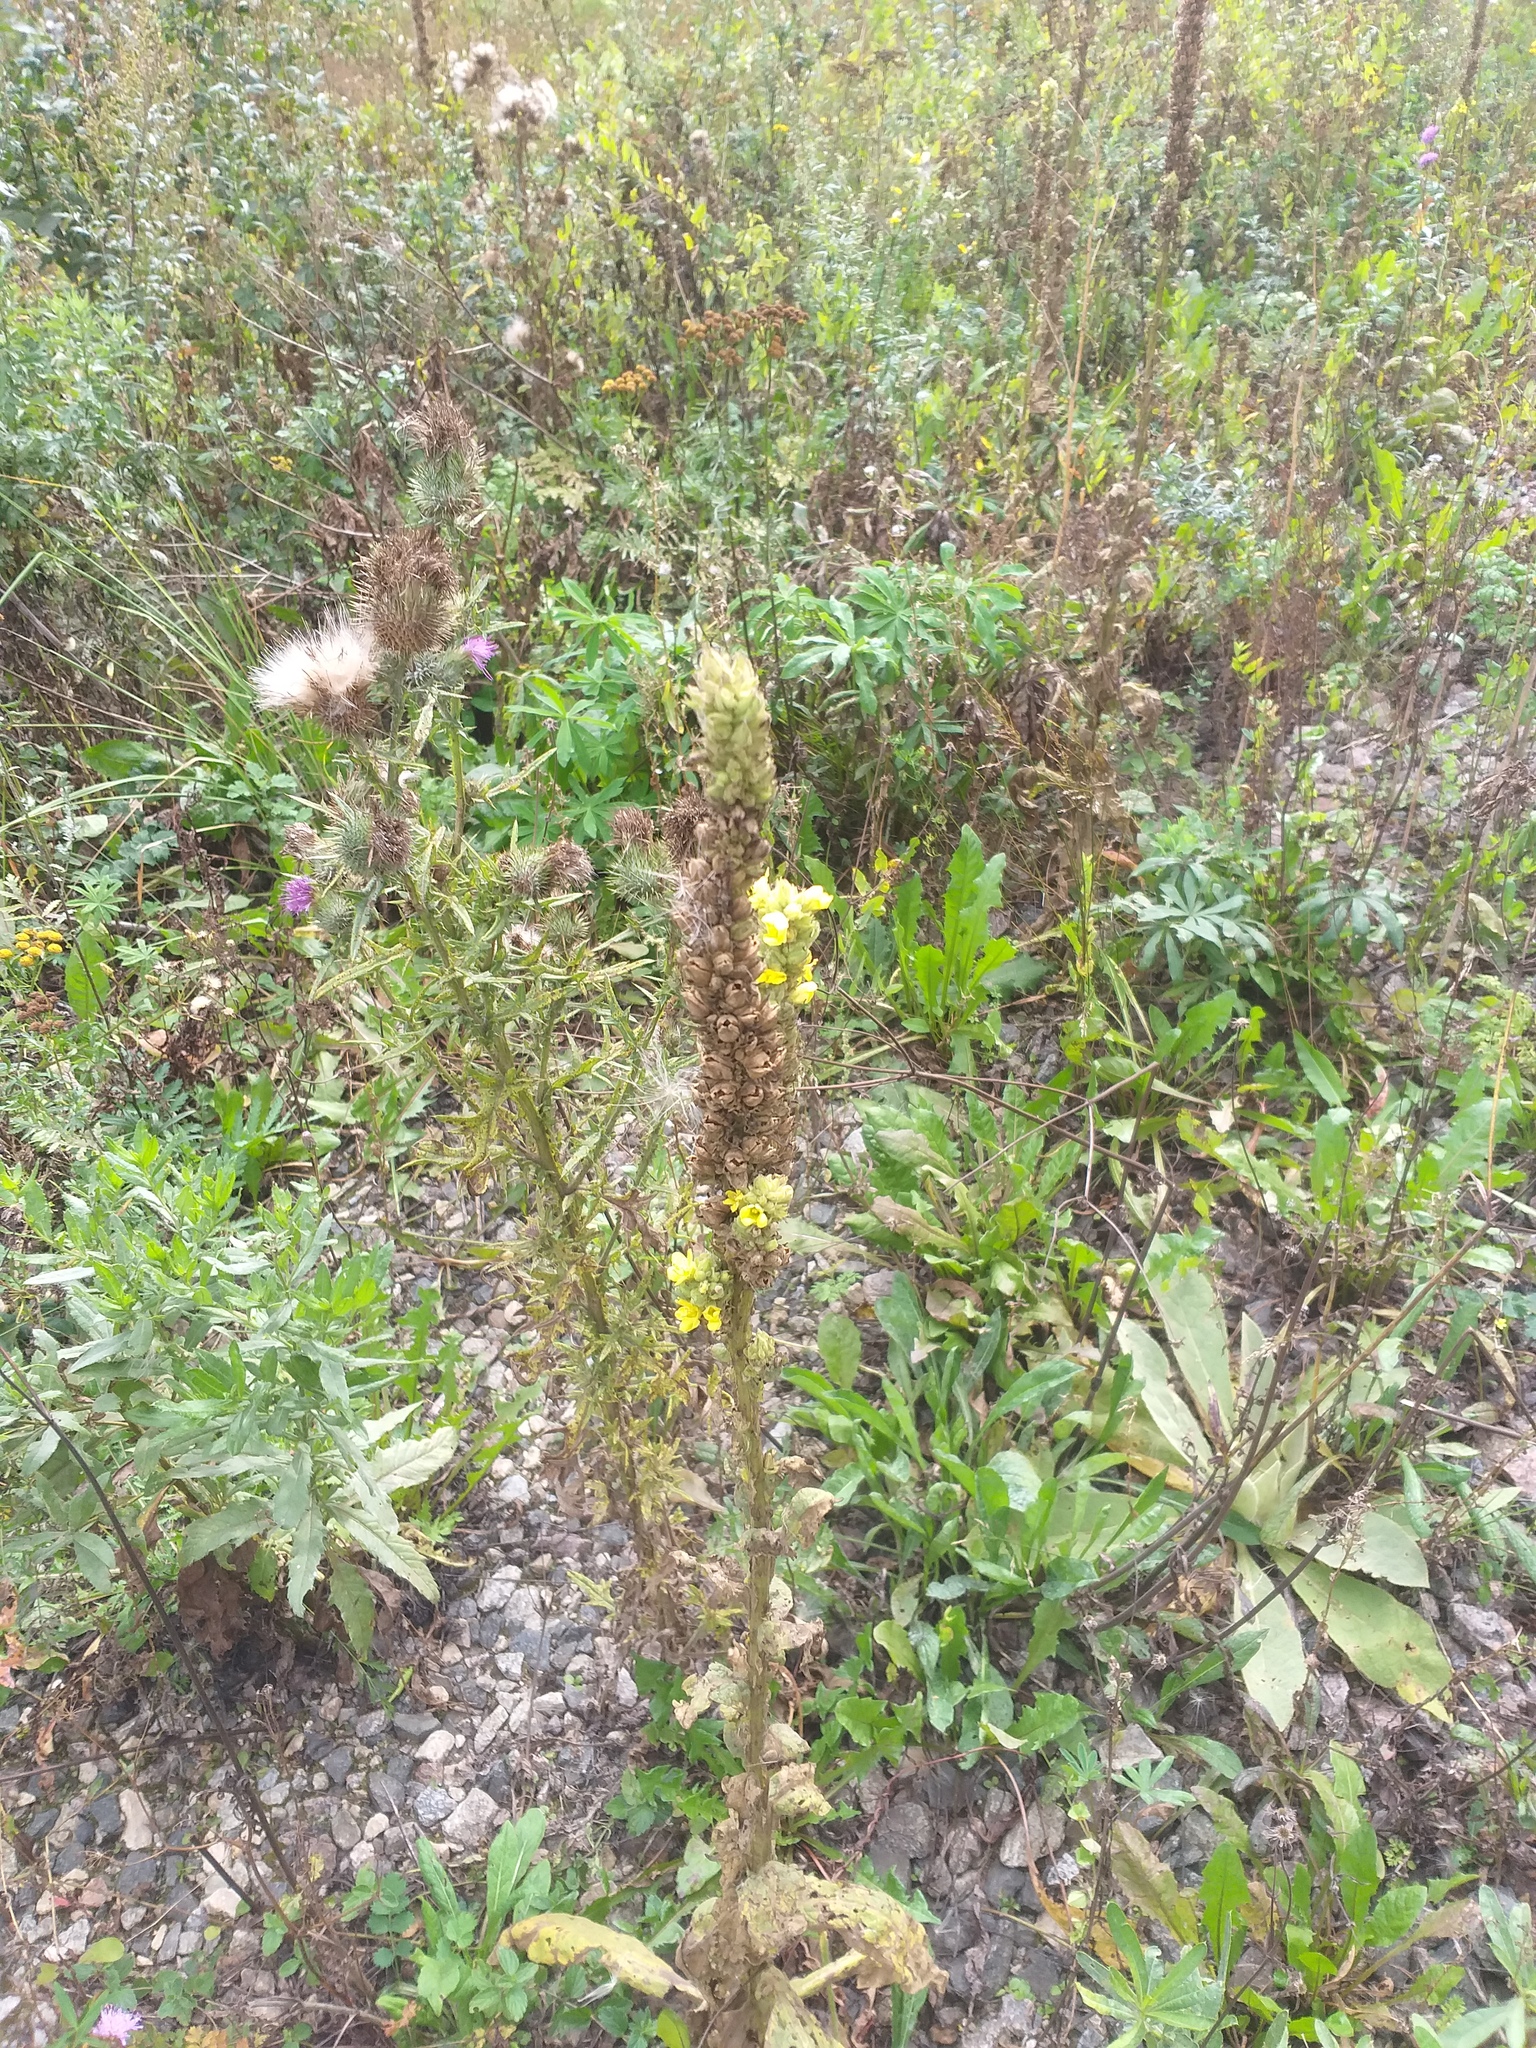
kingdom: Plantae
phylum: Tracheophyta
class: Magnoliopsida
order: Lamiales
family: Scrophulariaceae
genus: Verbascum
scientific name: Verbascum thapsus
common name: Common mullein
